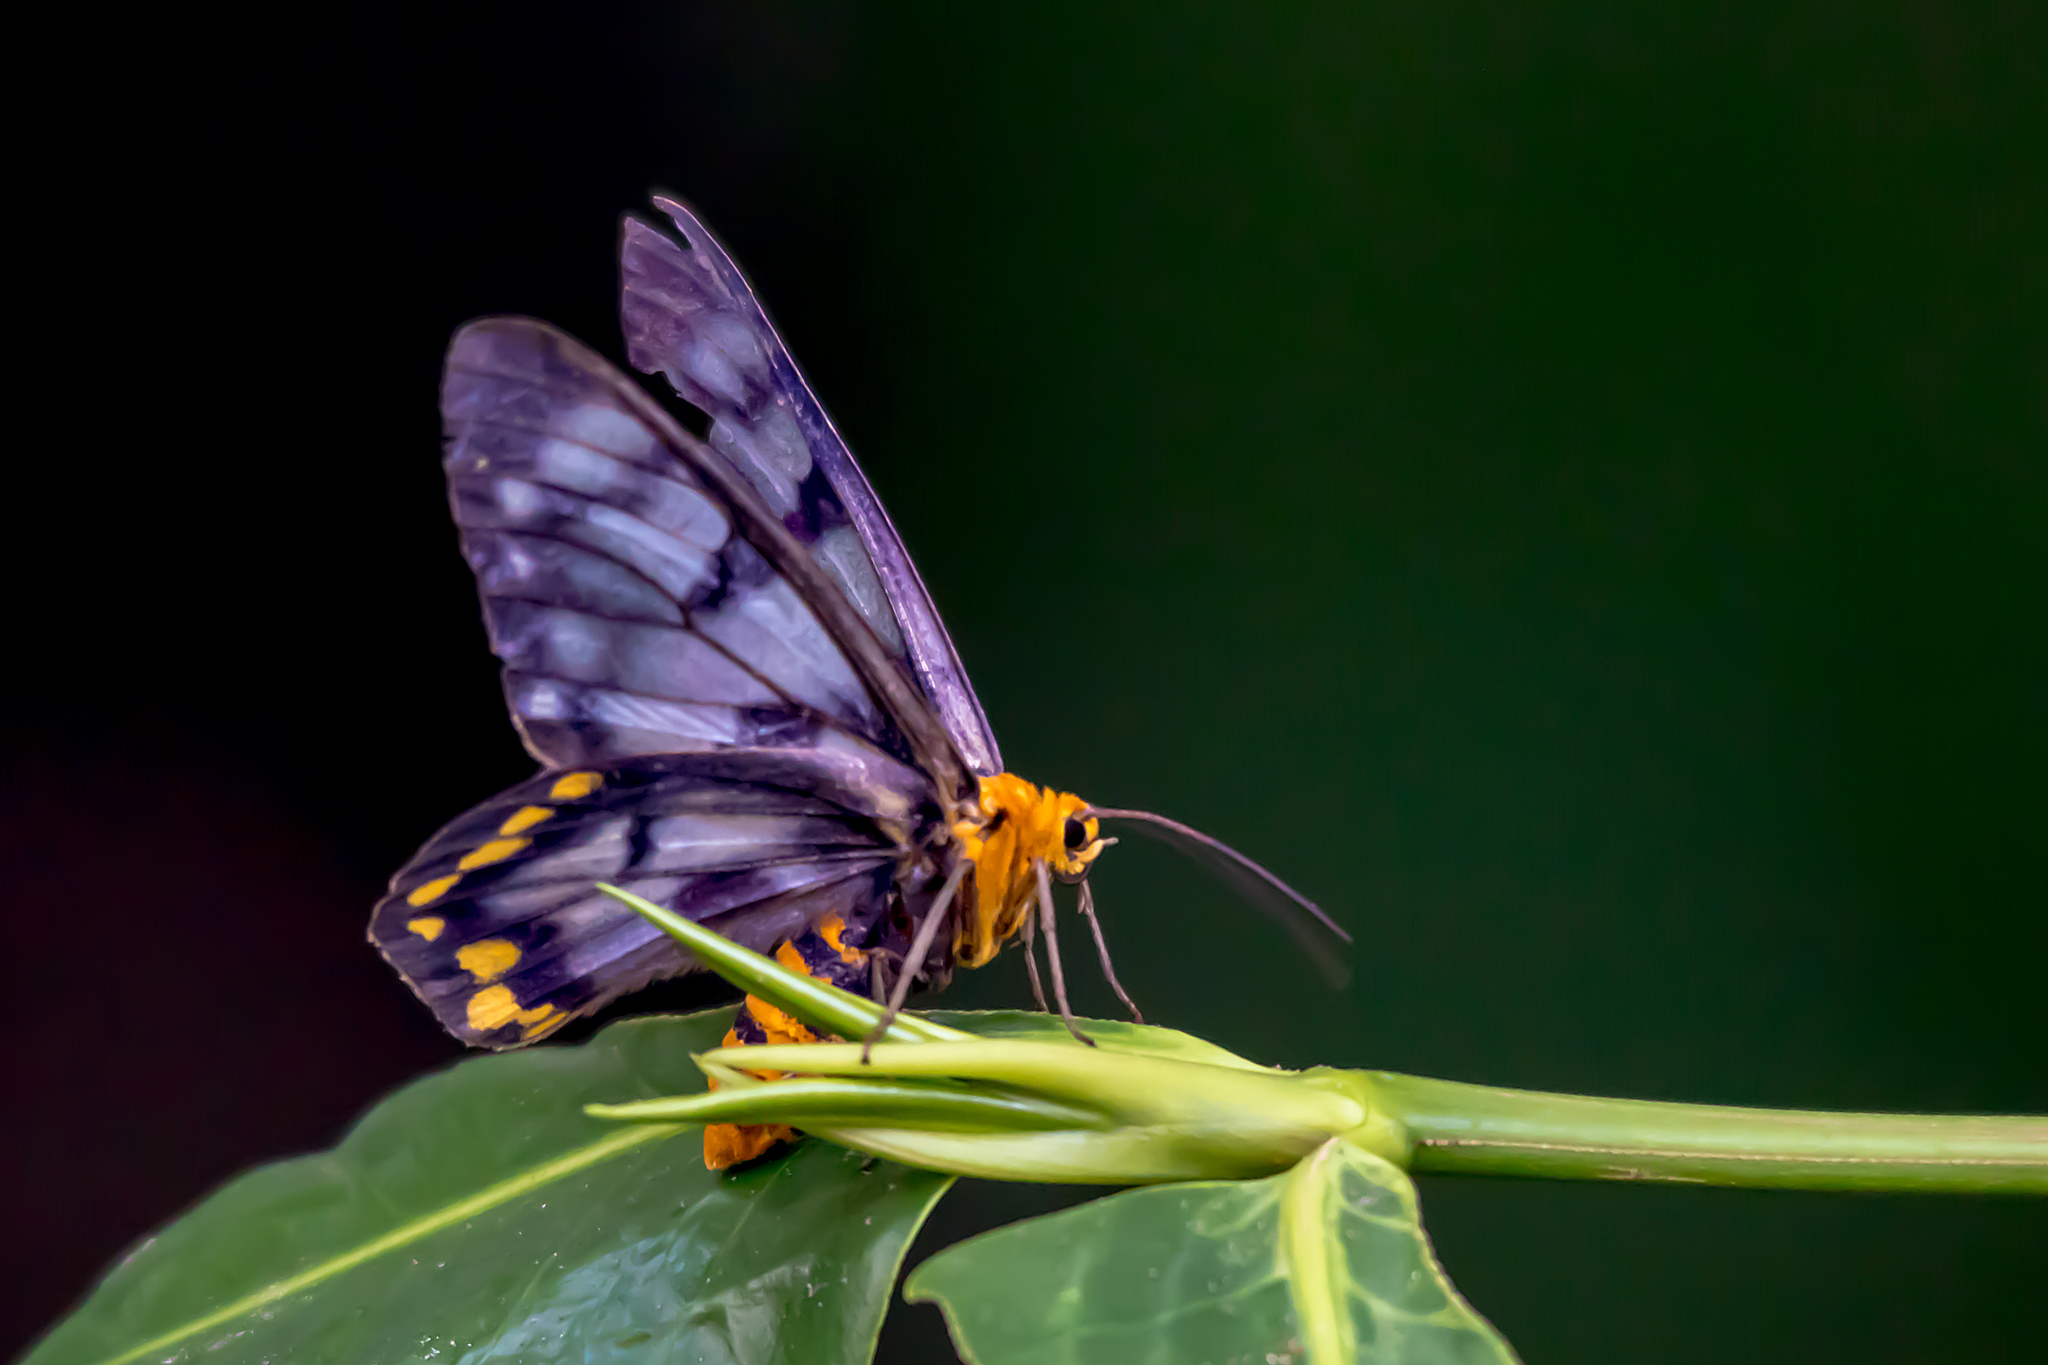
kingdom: Animalia
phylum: Arthropoda
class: Insecta
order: Lepidoptera
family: Geometridae
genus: Dysphania
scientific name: Dysphania numana
